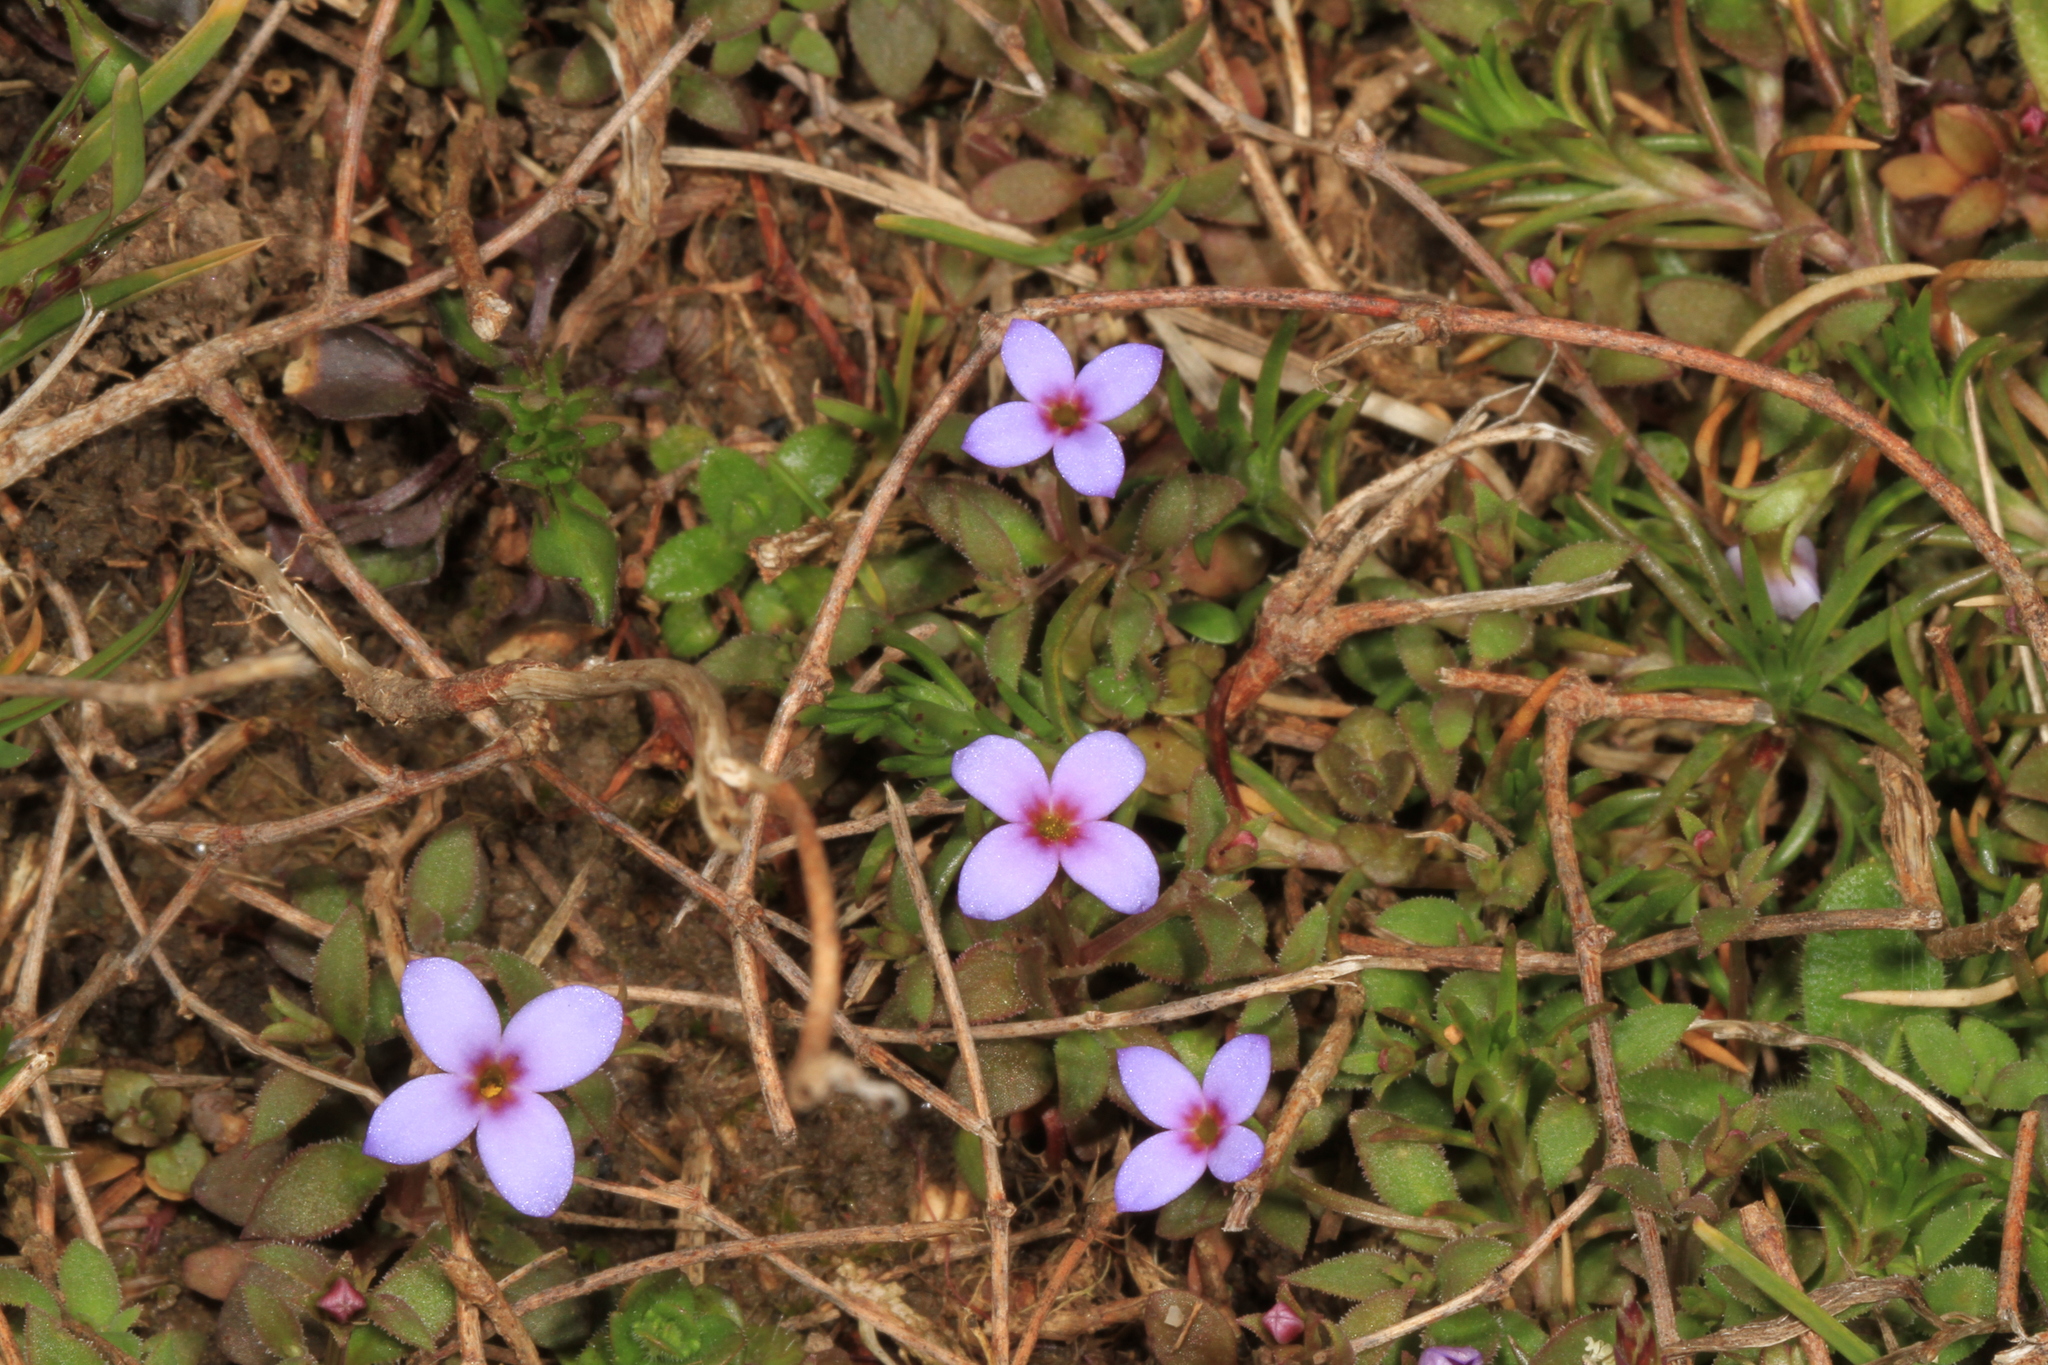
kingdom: Plantae
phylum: Tracheophyta
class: Magnoliopsida
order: Gentianales
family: Rubiaceae
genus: Houstonia
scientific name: Houstonia pusilla
